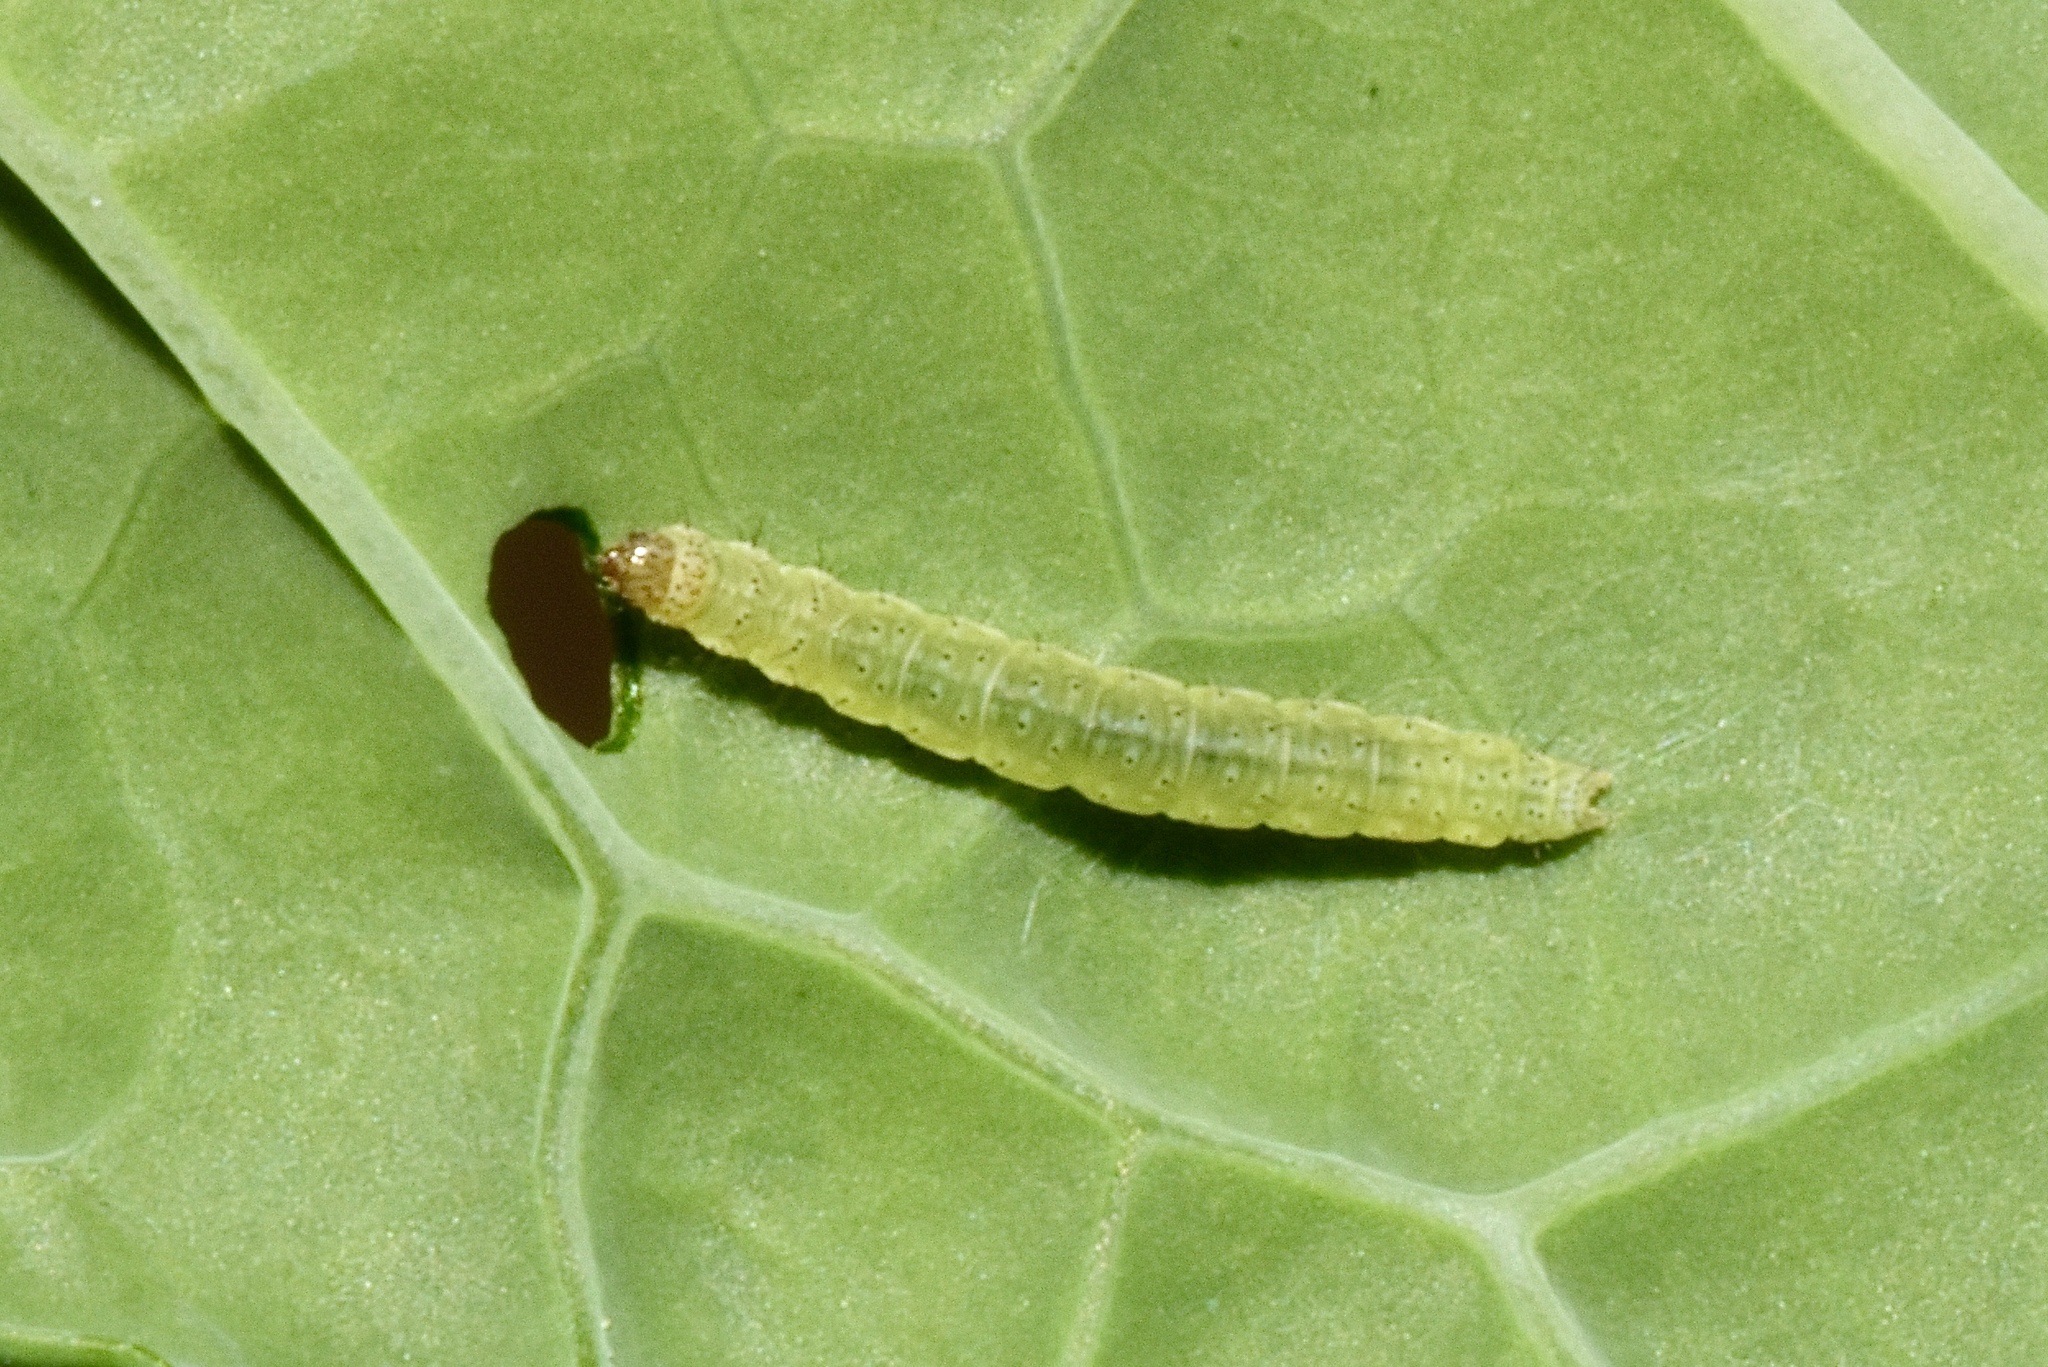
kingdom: Animalia
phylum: Arthropoda
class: Insecta
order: Lepidoptera
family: Plutellidae
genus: Plutella
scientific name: Plutella xylostella
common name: Diamond-back moth
